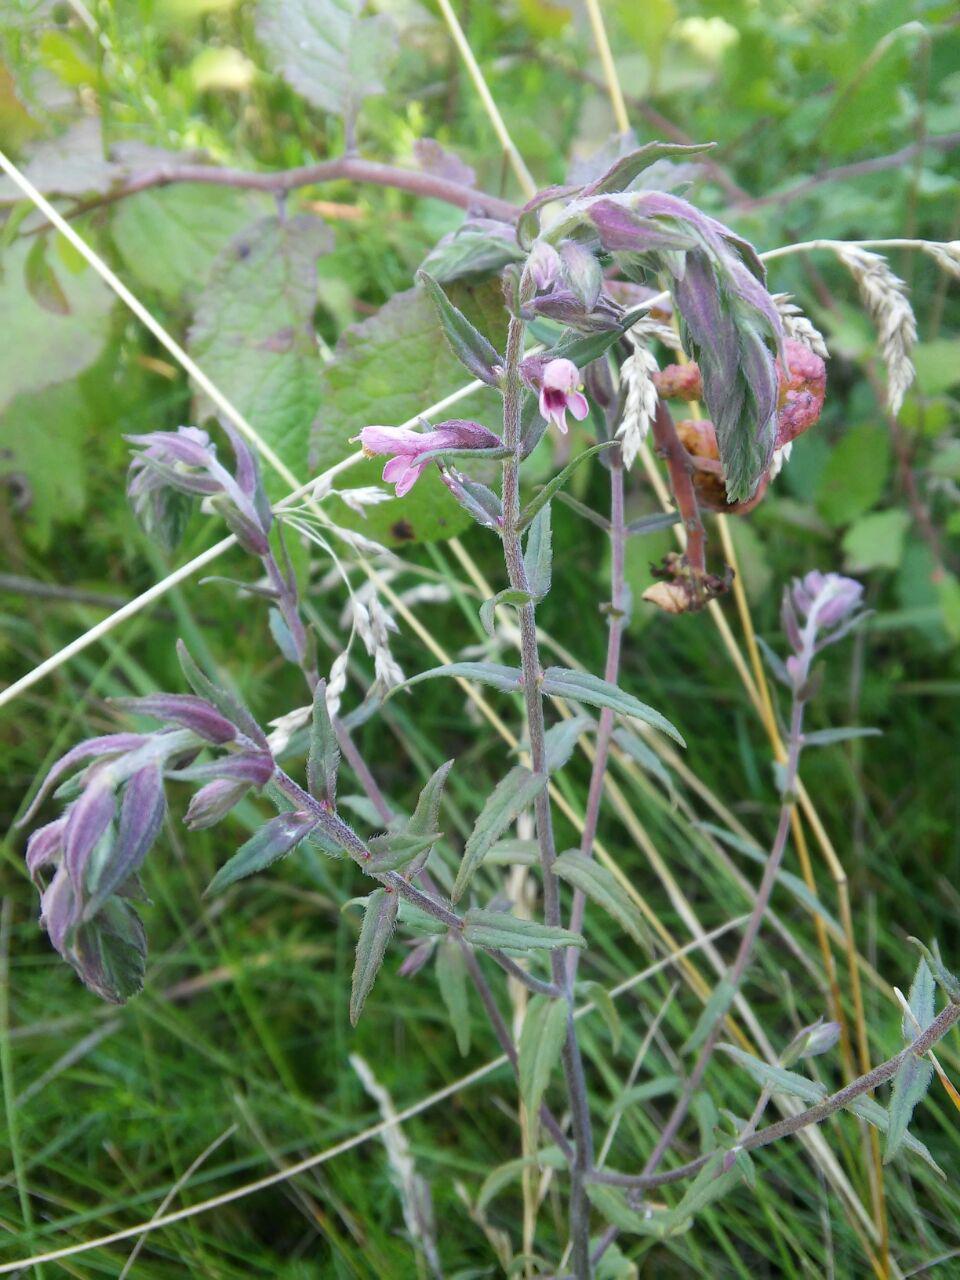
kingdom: Plantae
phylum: Tracheophyta
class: Magnoliopsida
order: Lamiales
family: Orobanchaceae
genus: Odontites
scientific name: Odontites vulgaris
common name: Broomrape
